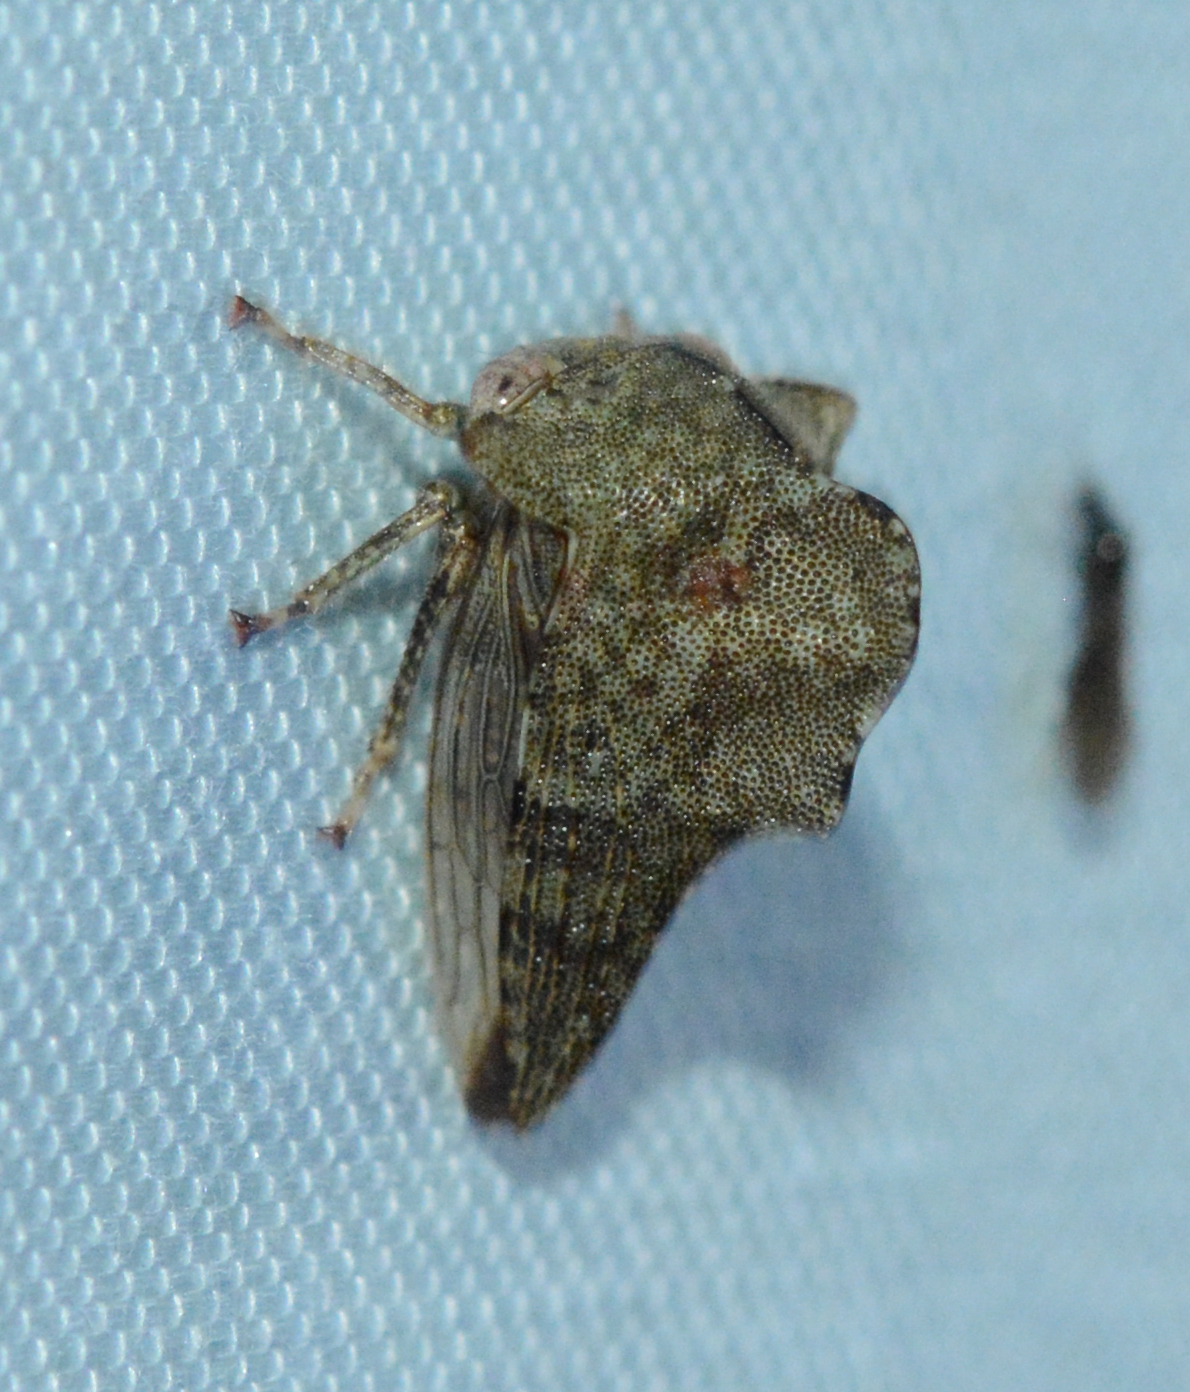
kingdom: Animalia
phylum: Arthropoda
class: Insecta
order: Hemiptera
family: Membracidae
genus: Heliria
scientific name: Heliria cornutula
